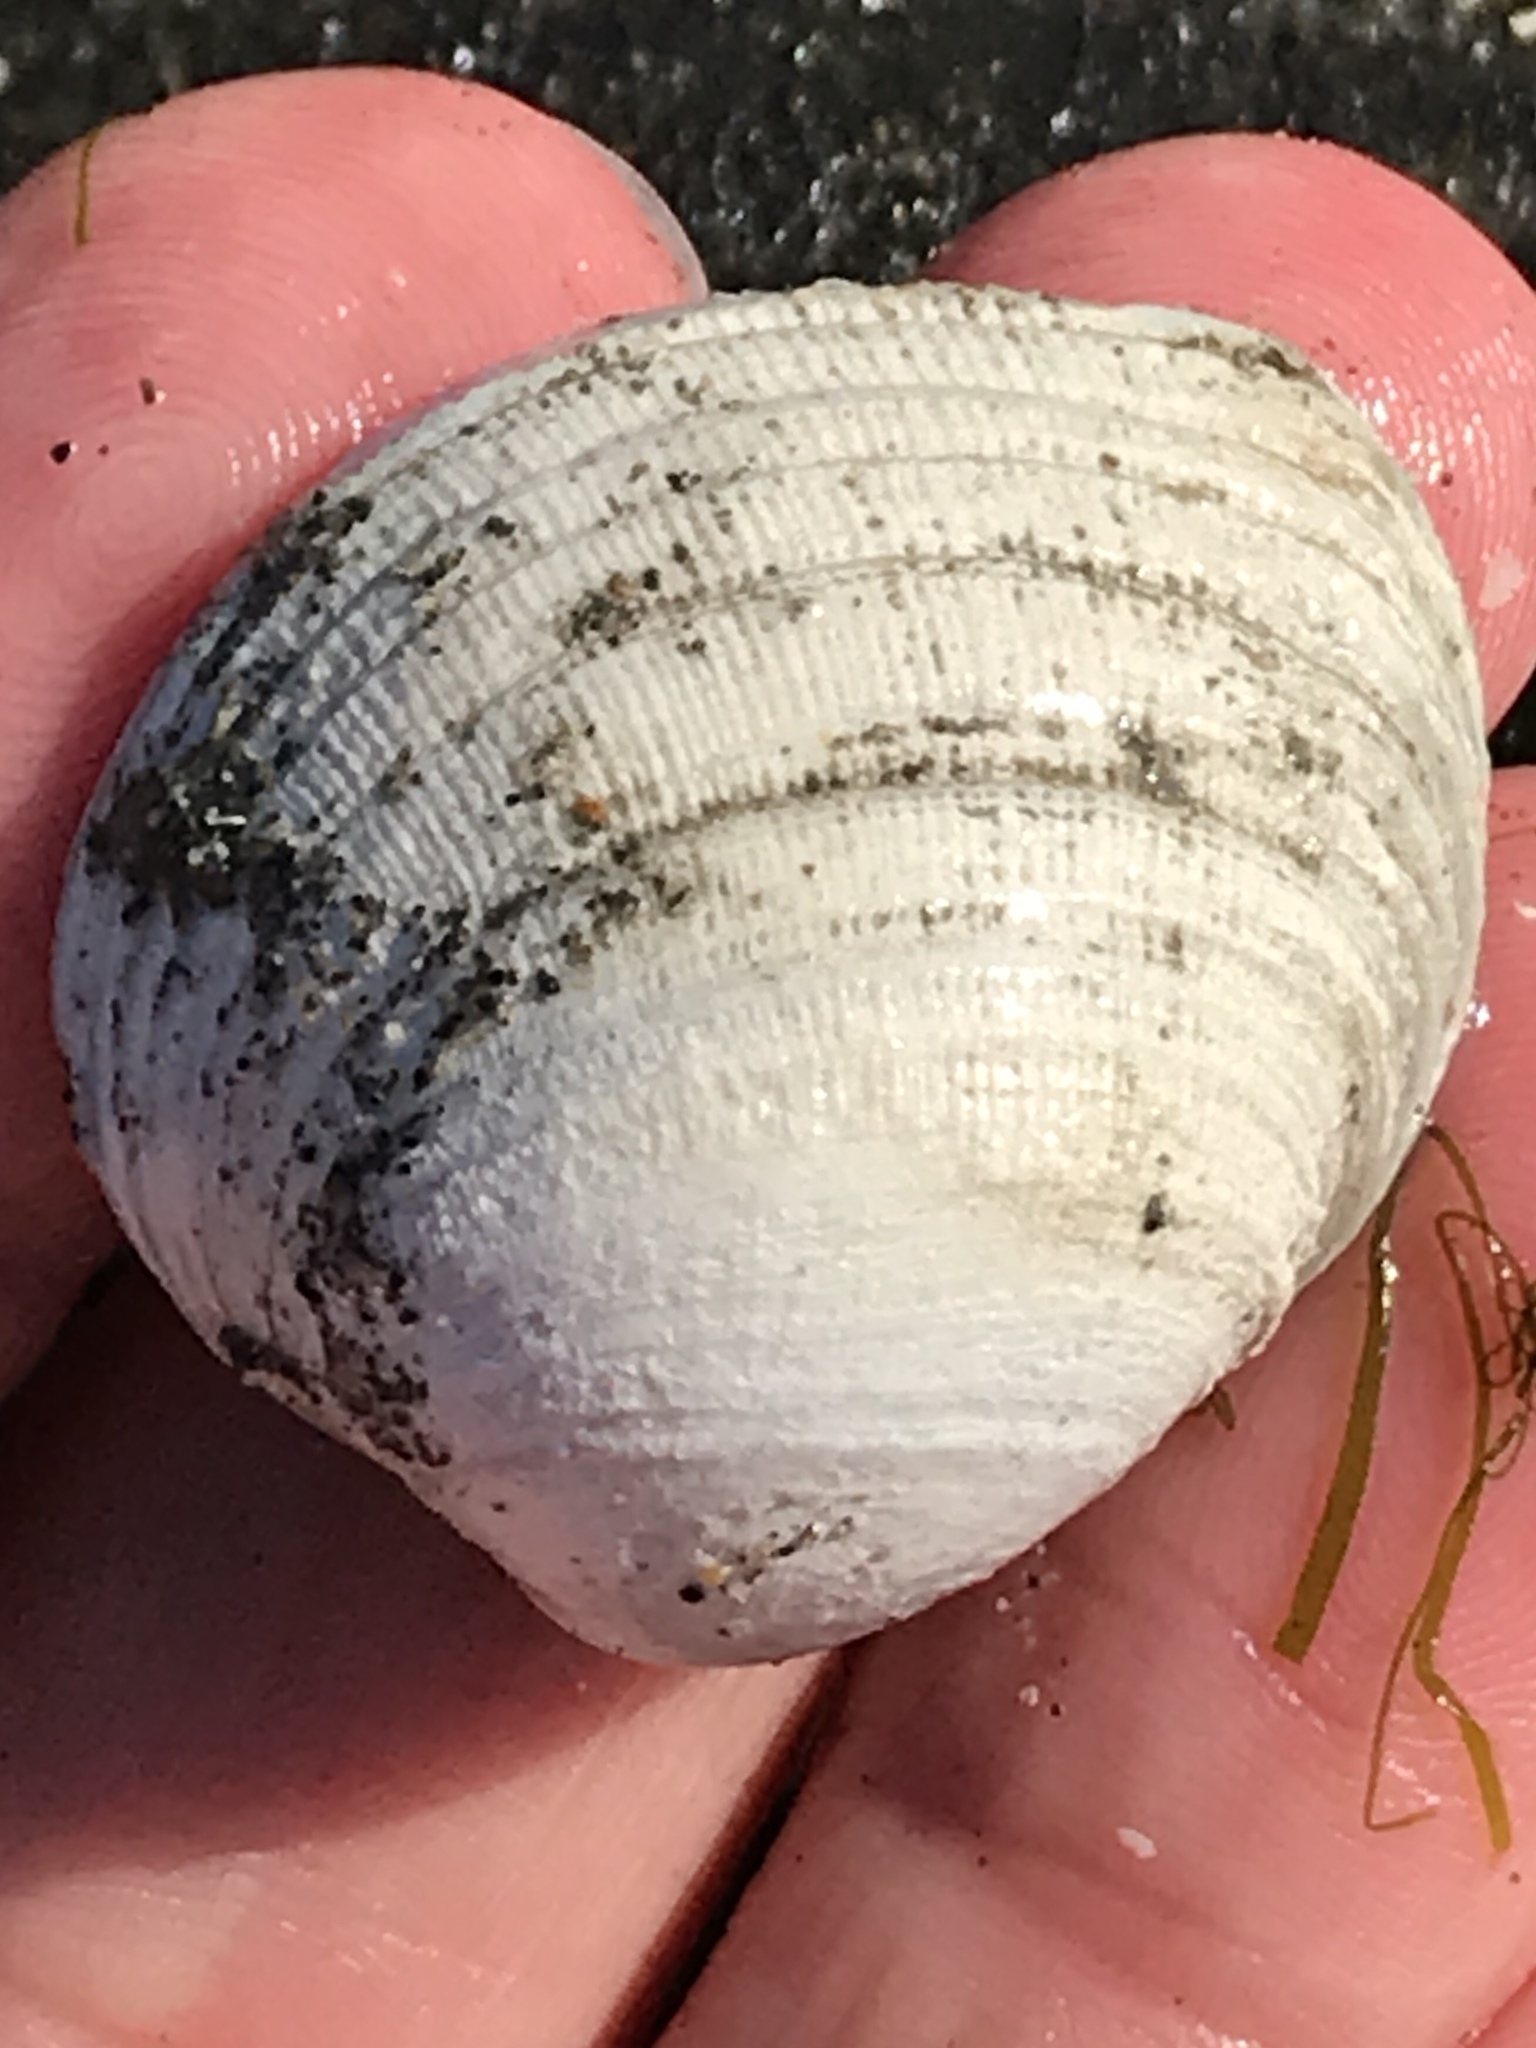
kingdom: Animalia
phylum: Mollusca
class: Bivalvia
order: Venerida
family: Veneridae
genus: Leukoma
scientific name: Leukoma staminea
